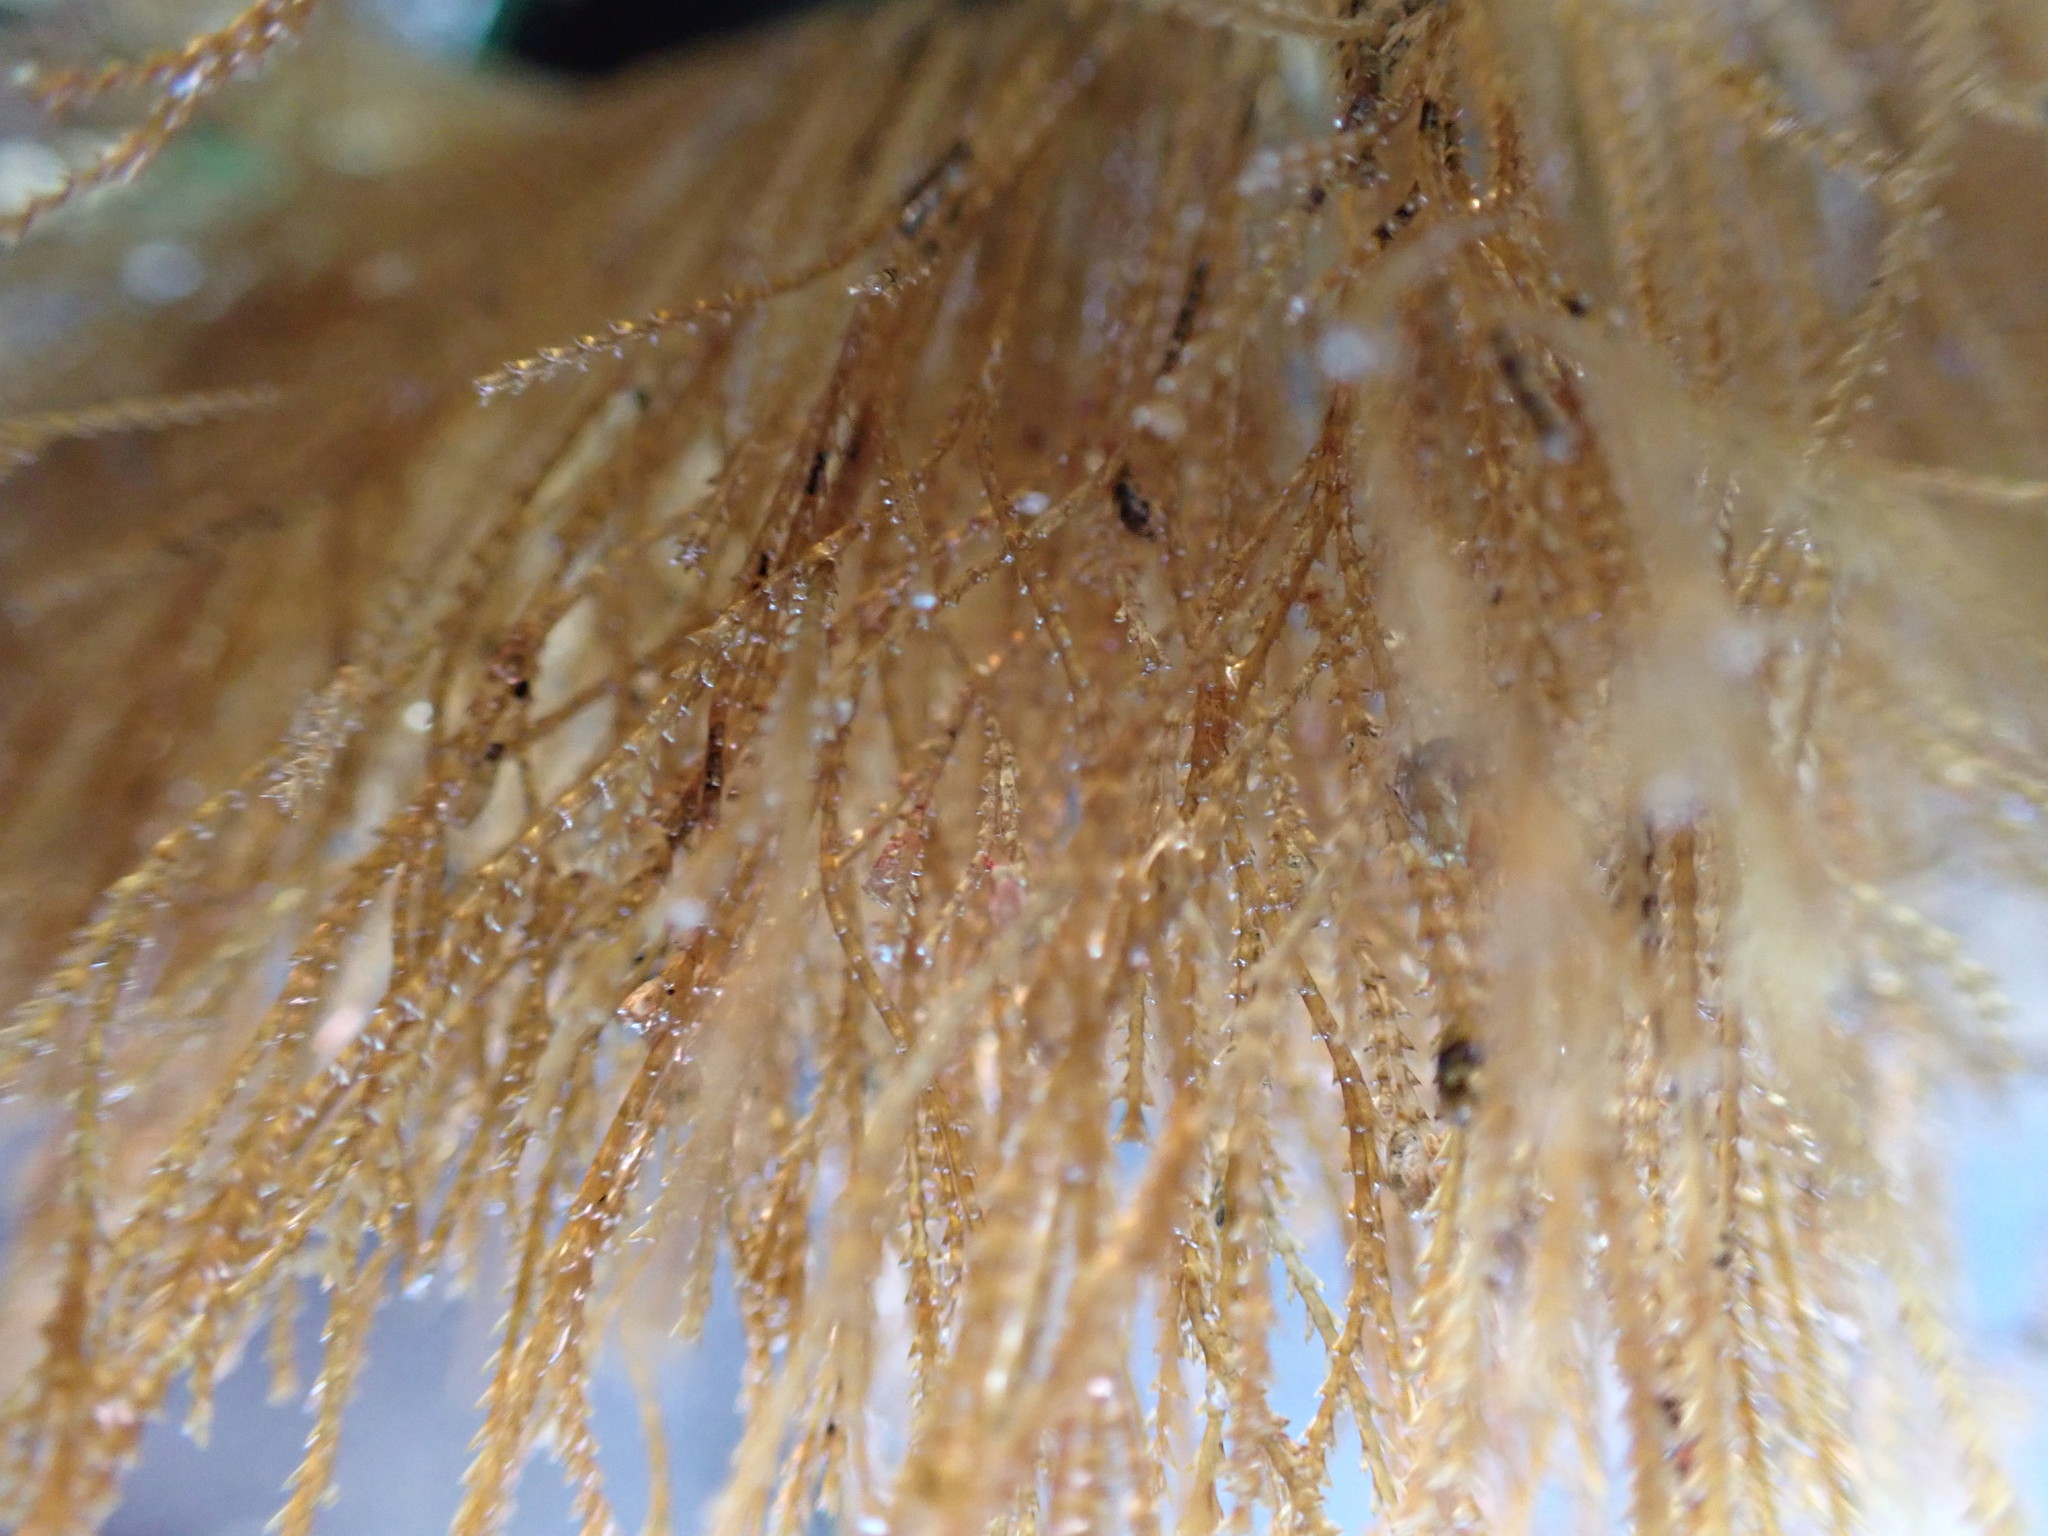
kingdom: Animalia
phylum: Cnidaria
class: Hydrozoa
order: Leptothecata
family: Sertulariidae
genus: Amphisbetia
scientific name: Amphisbetia bispinosa
